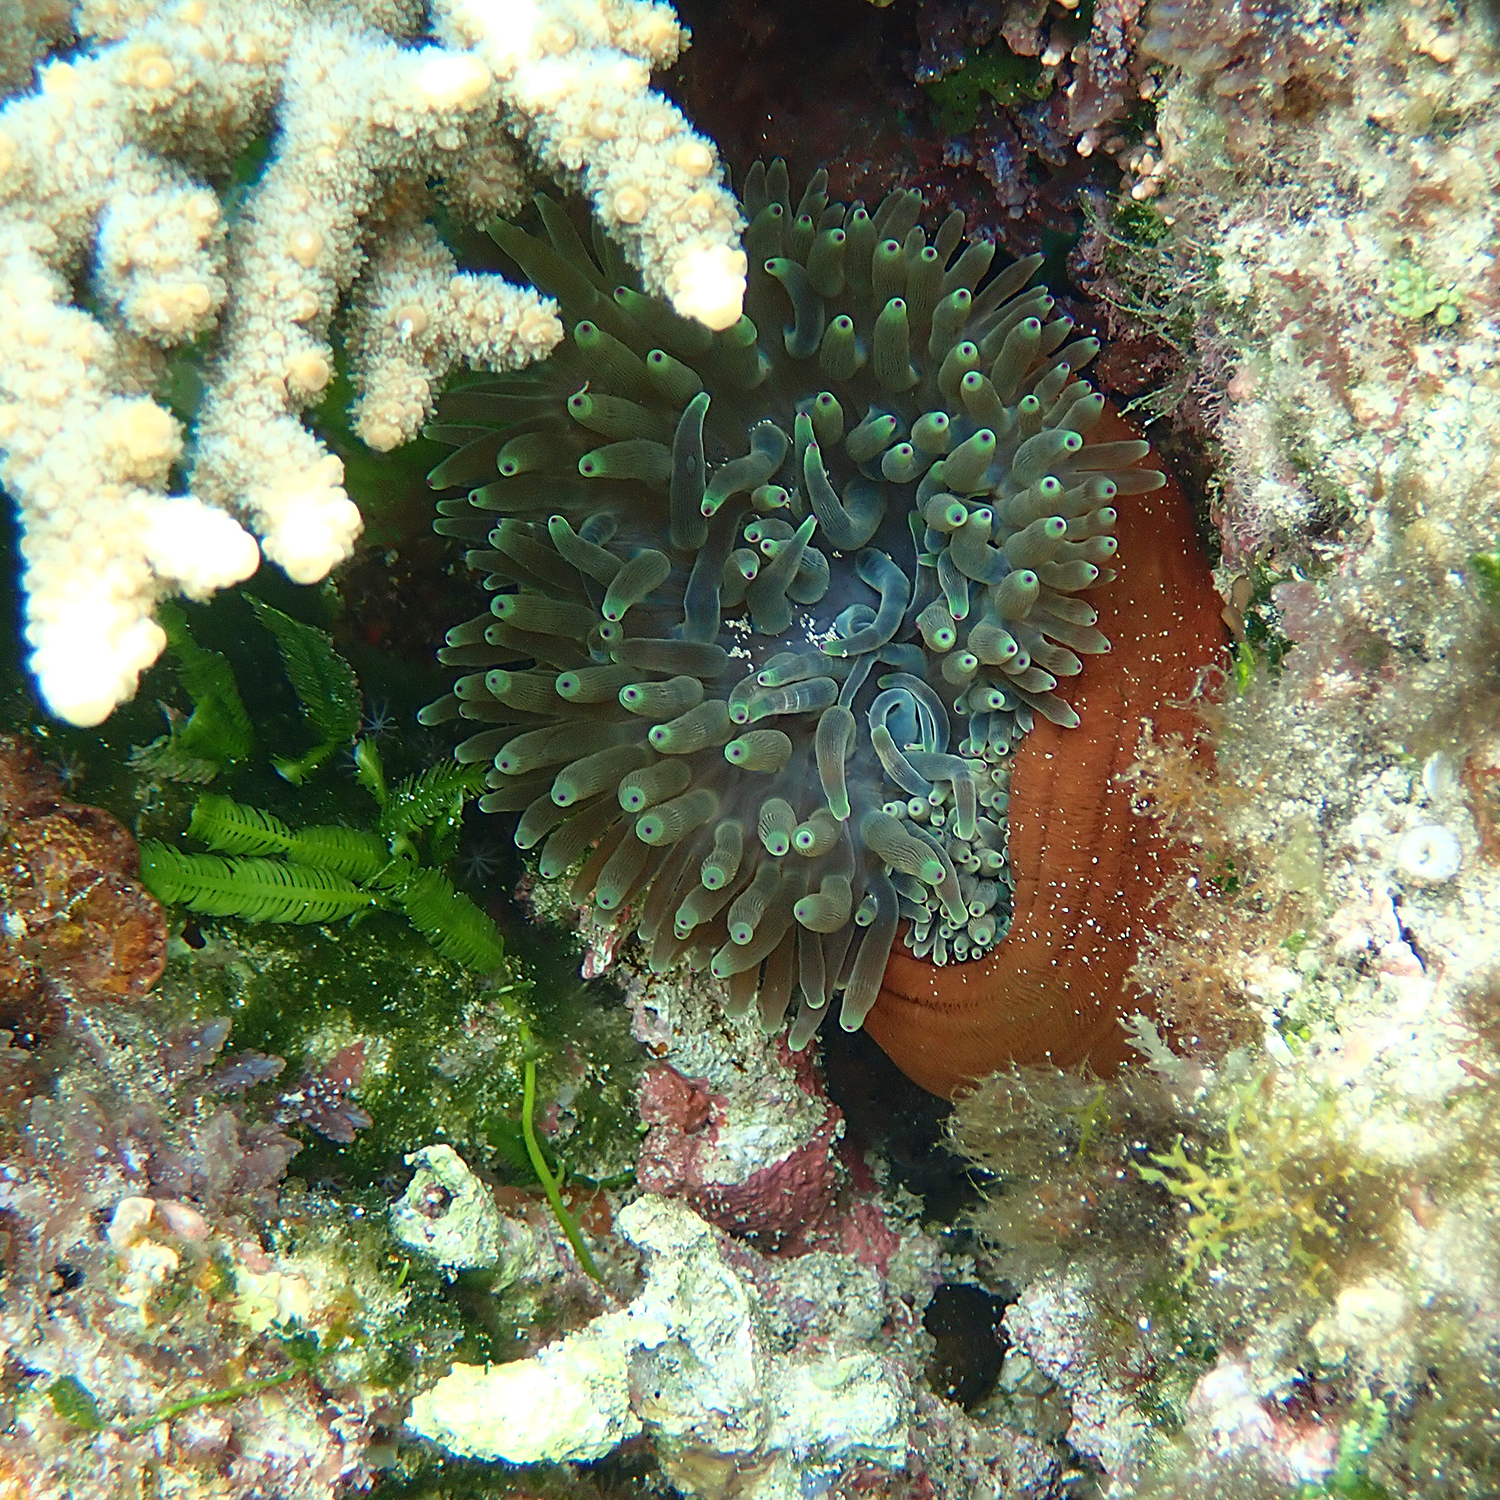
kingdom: Animalia
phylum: Cnidaria
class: Anthozoa
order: Actiniaria
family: Actiniidae
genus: Entacmaea
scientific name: Entacmaea quadricolor
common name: Bulb tentacle sea anemone
